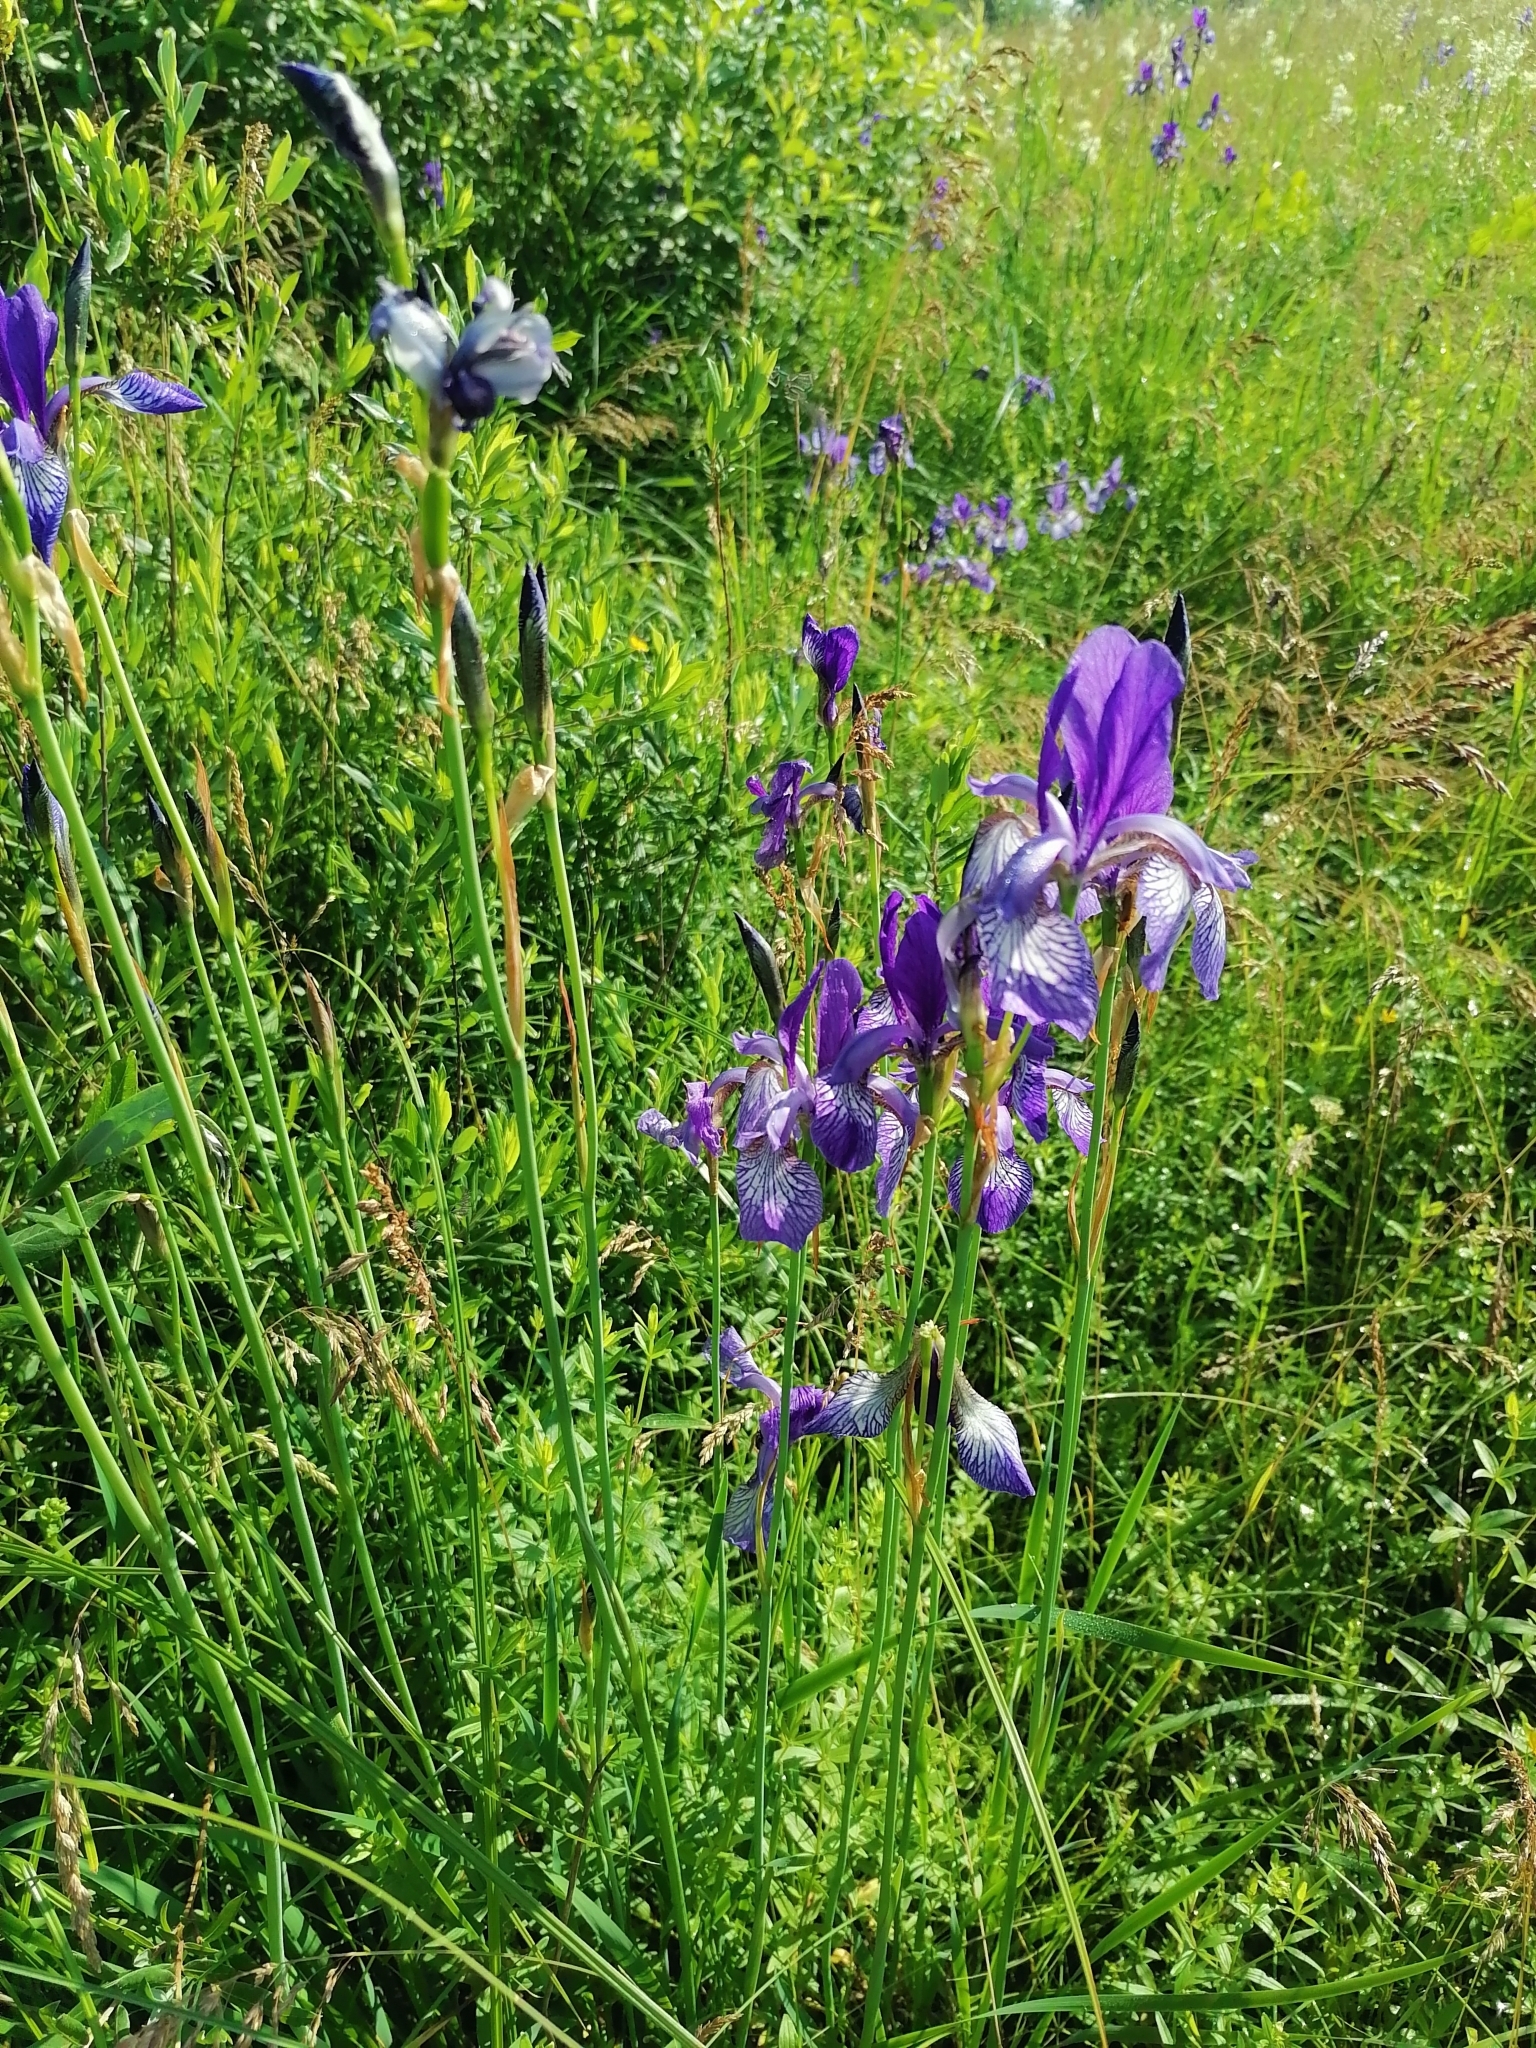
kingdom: Plantae
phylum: Tracheophyta
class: Liliopsida
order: Asparagales
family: Iridaceae
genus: Iris
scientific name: Iris sibirica
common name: Siberian iris
